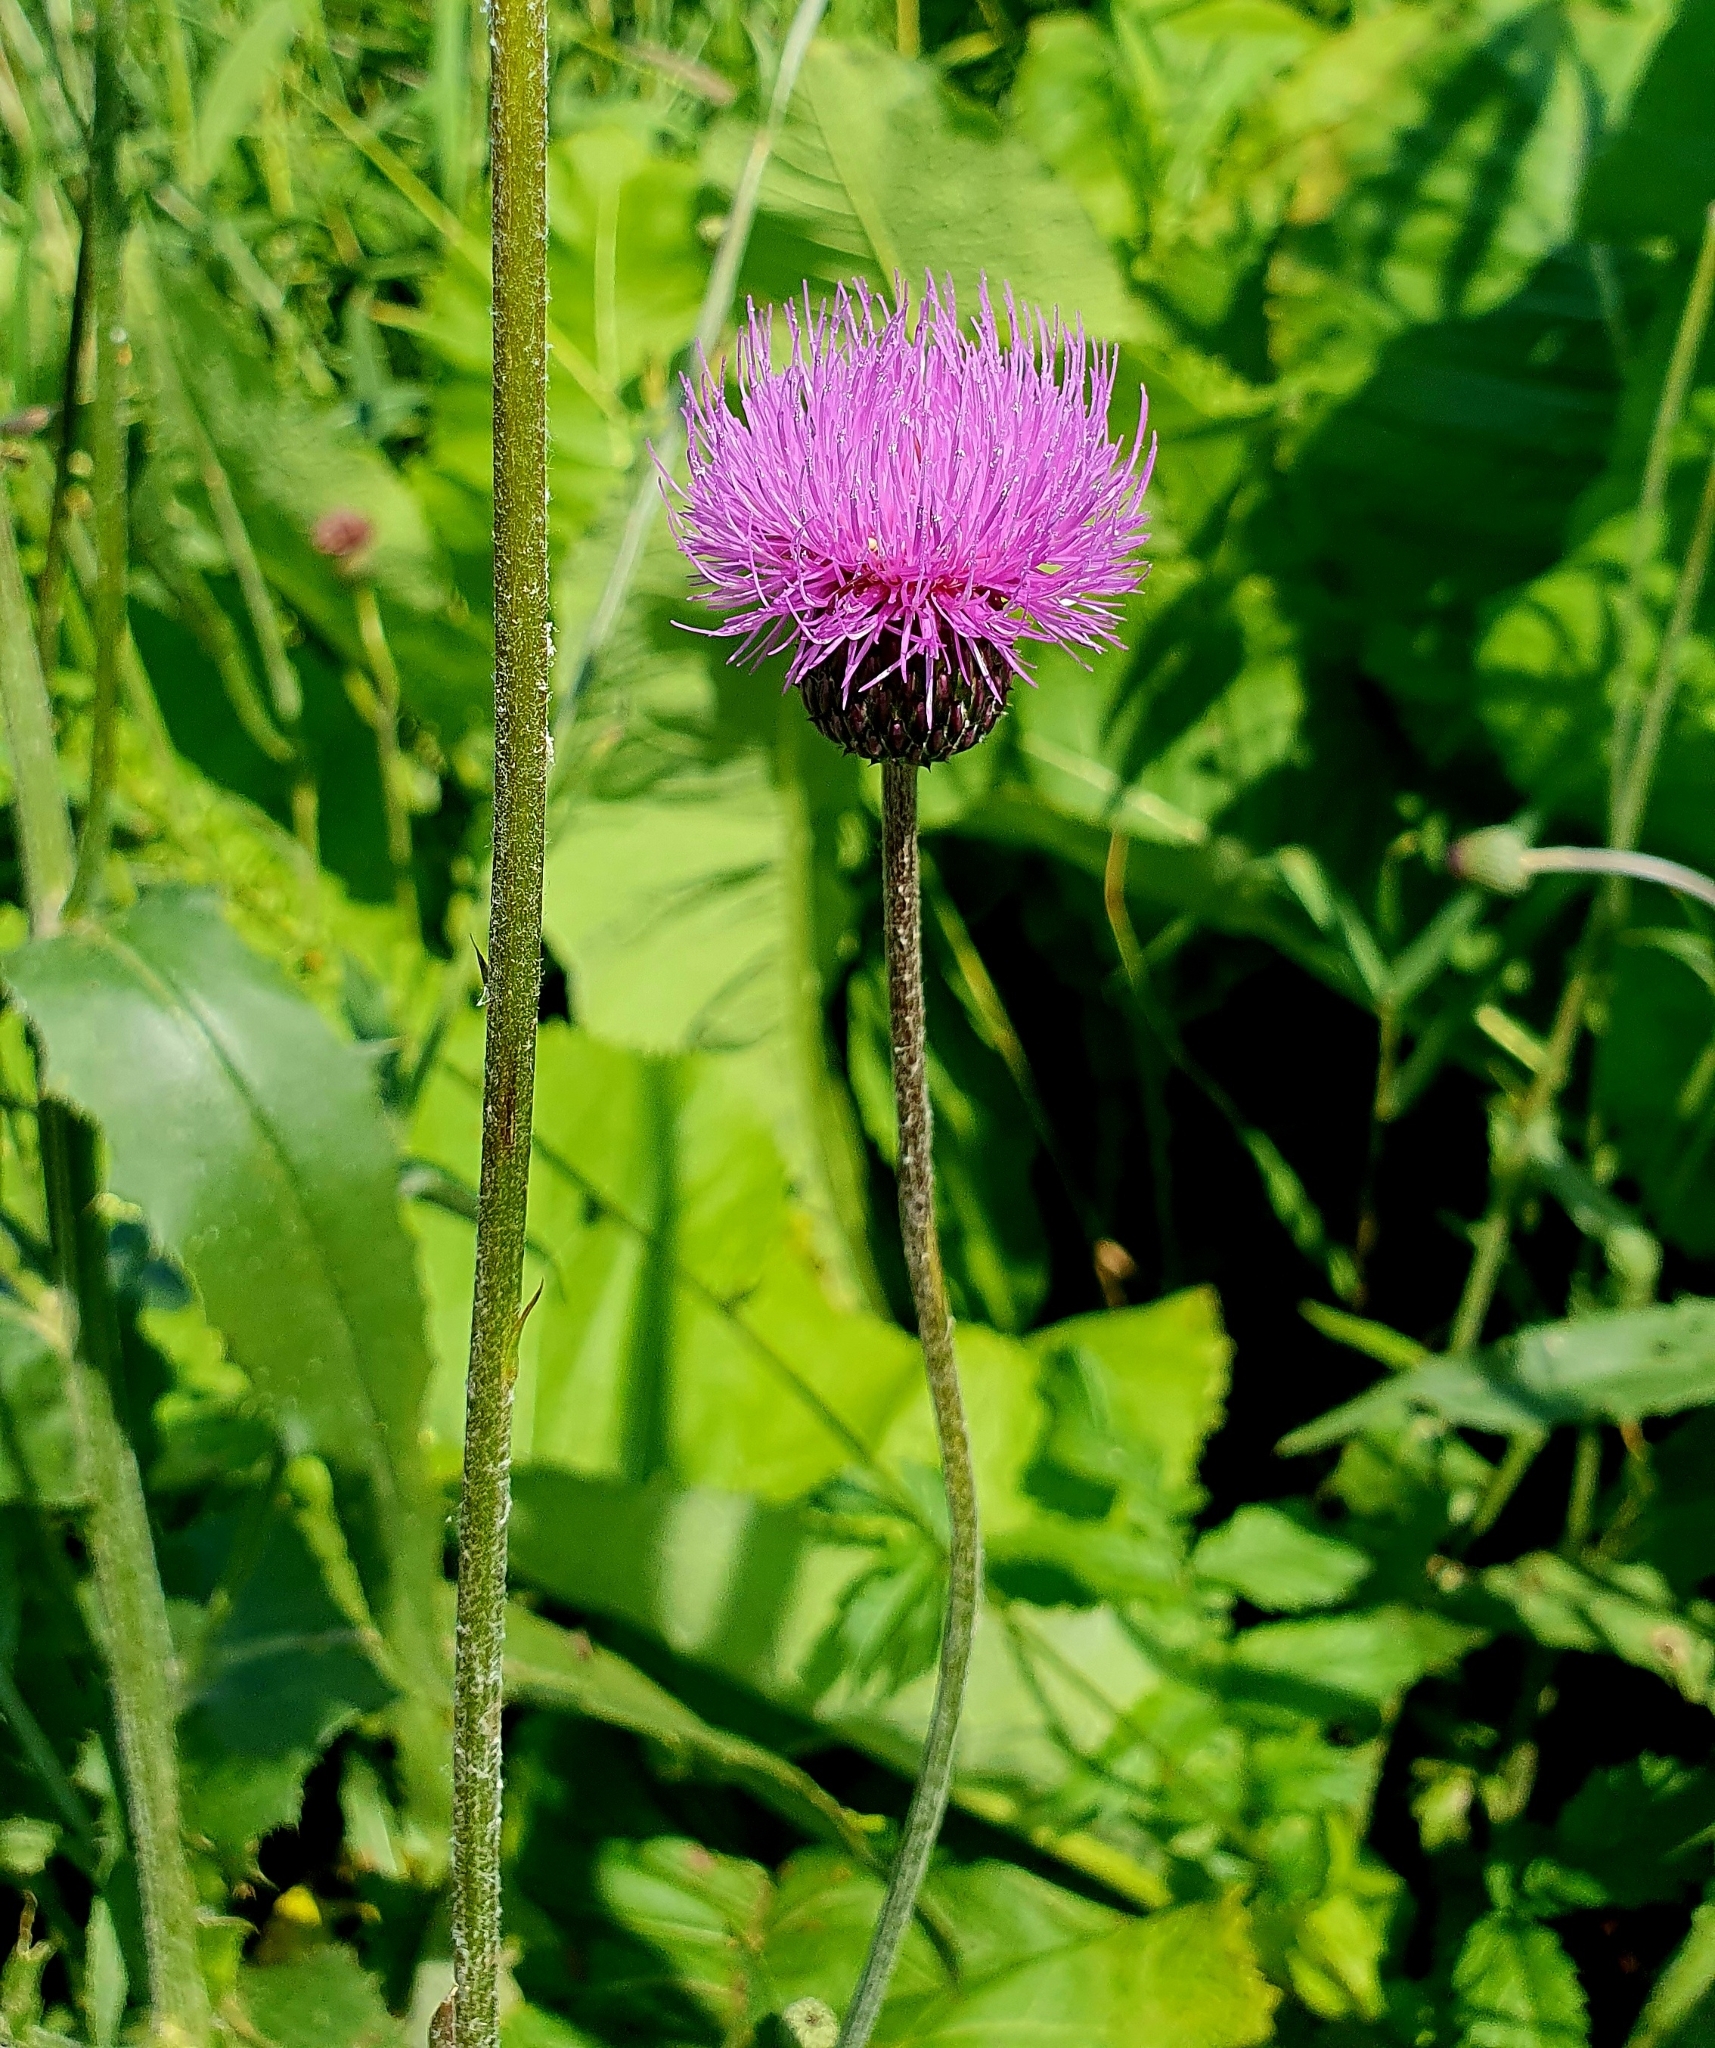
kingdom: Plantae
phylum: Tracheophyta
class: Magnoliopsida
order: Asterales
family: Asteraceae
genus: Cirsium
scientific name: Cirsium canum
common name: Queen anne's thistle
